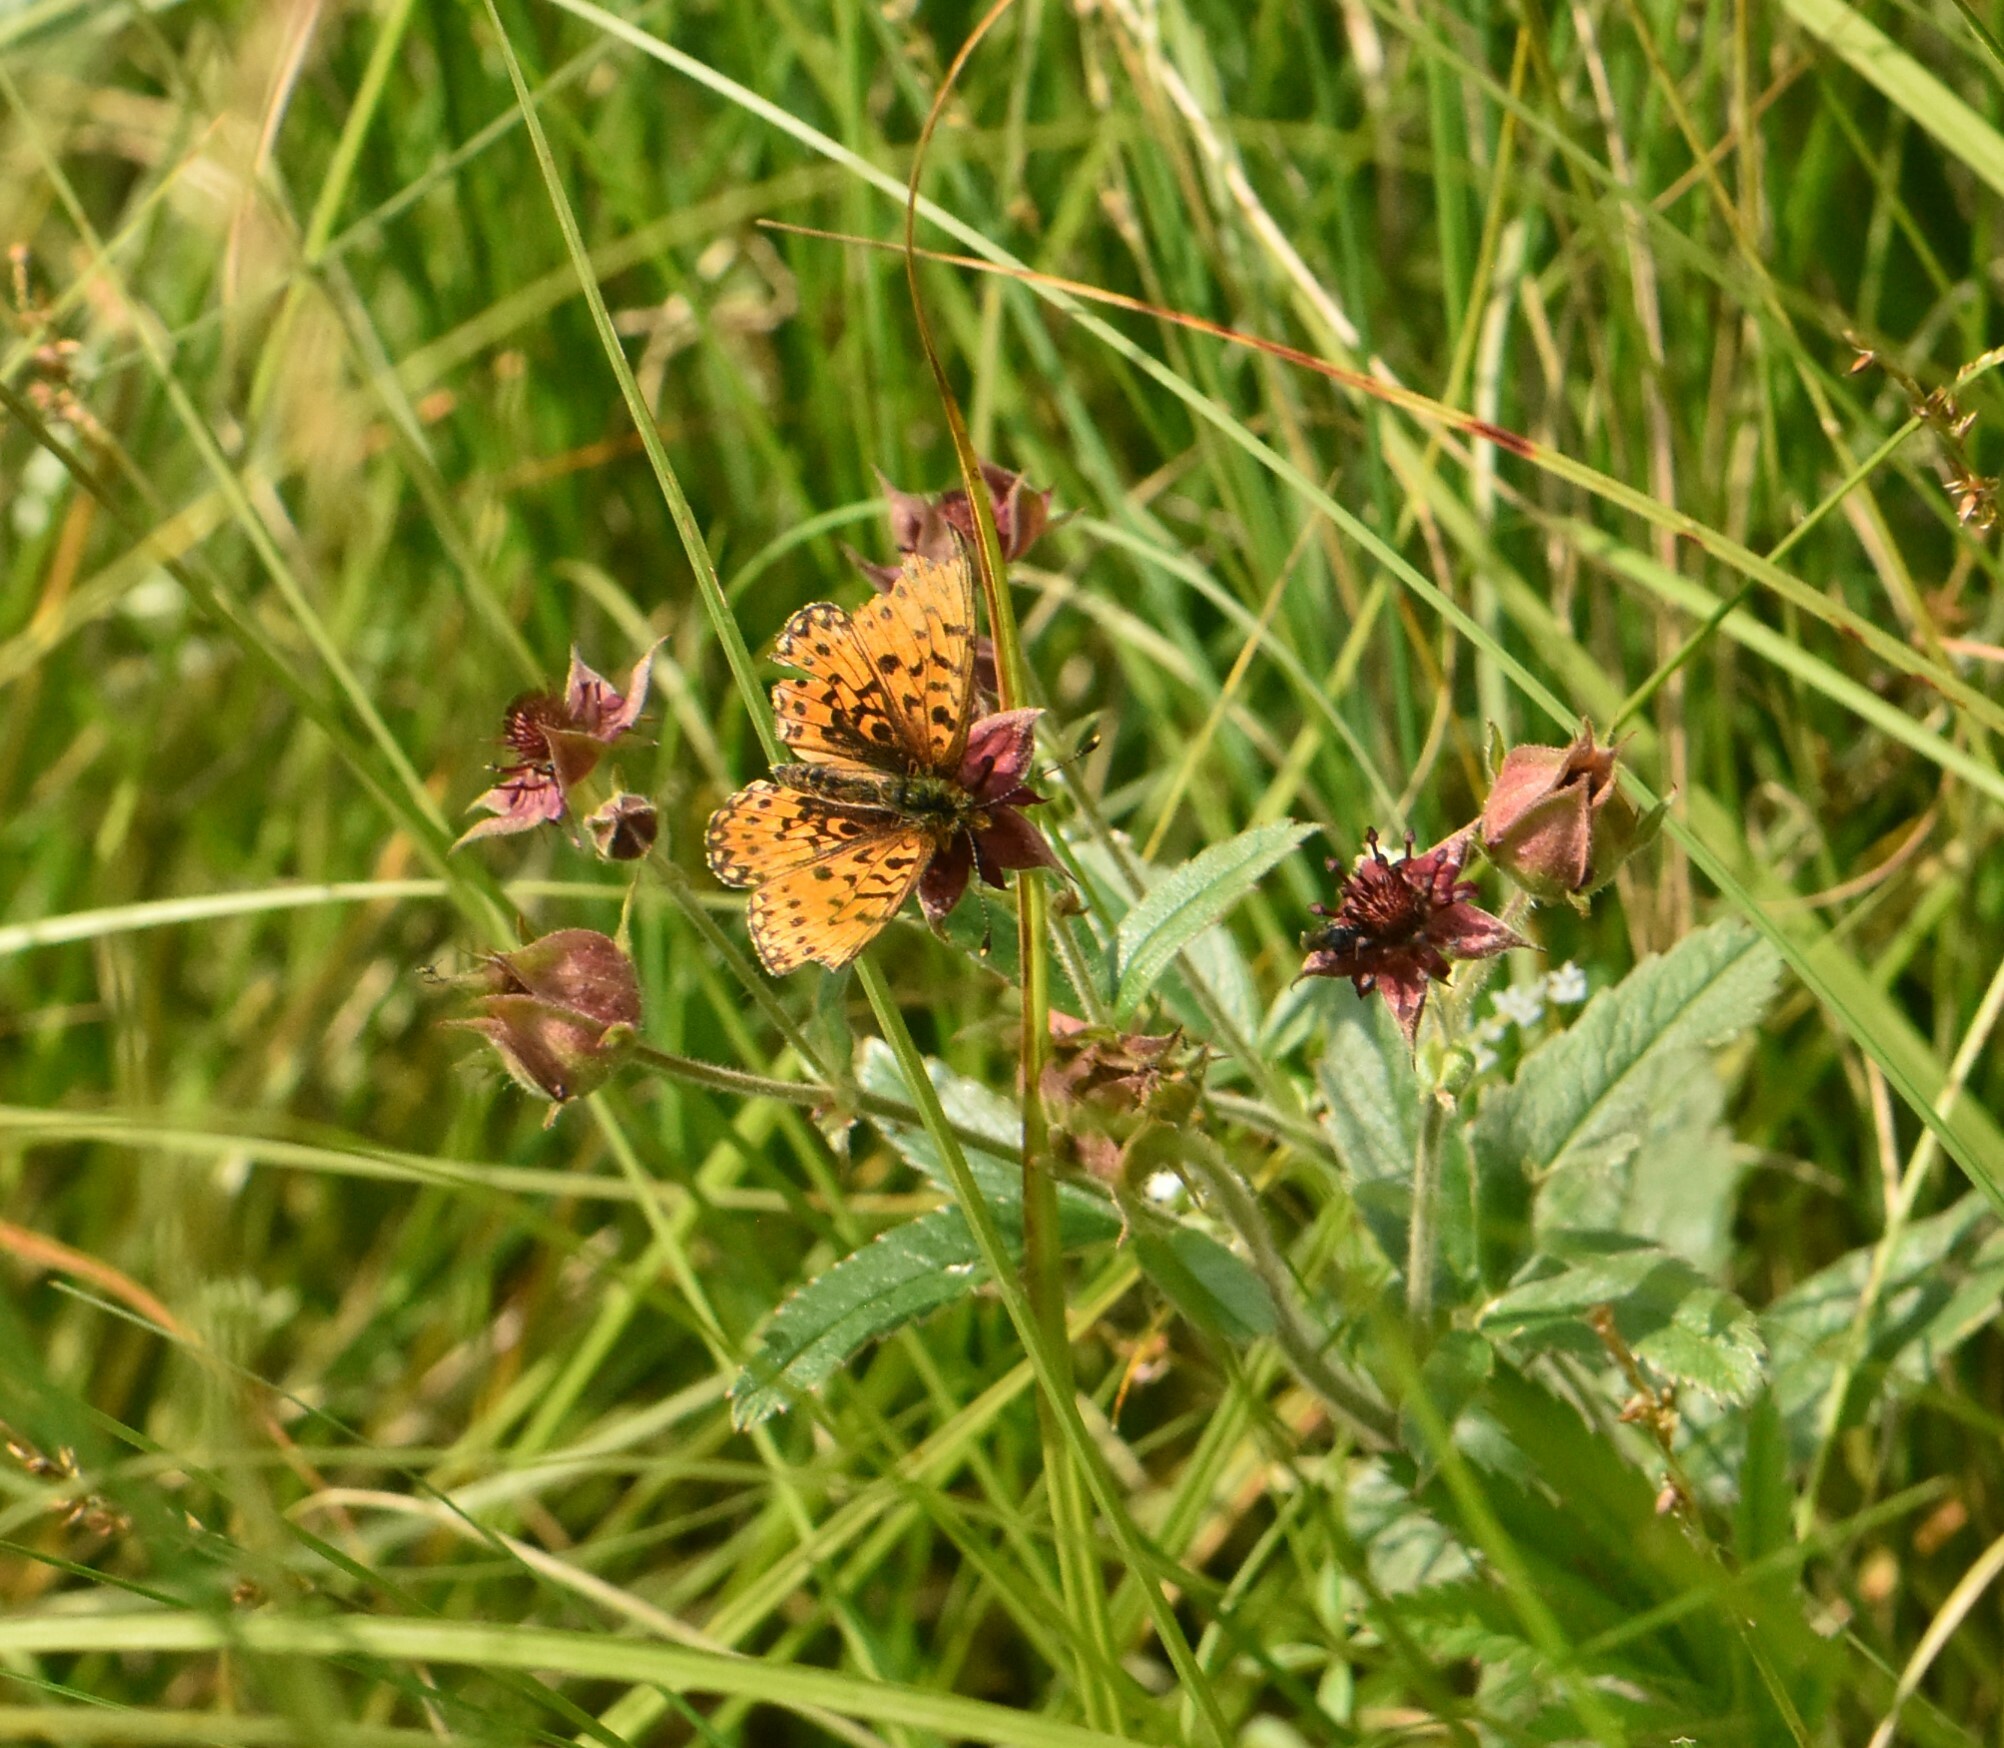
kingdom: Animalia
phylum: Arthropoda
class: Insecta
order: Lepidoptera
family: Nymphalidae
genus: Boloria
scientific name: Boloria selene
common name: Small pearl-bordered fritillary
